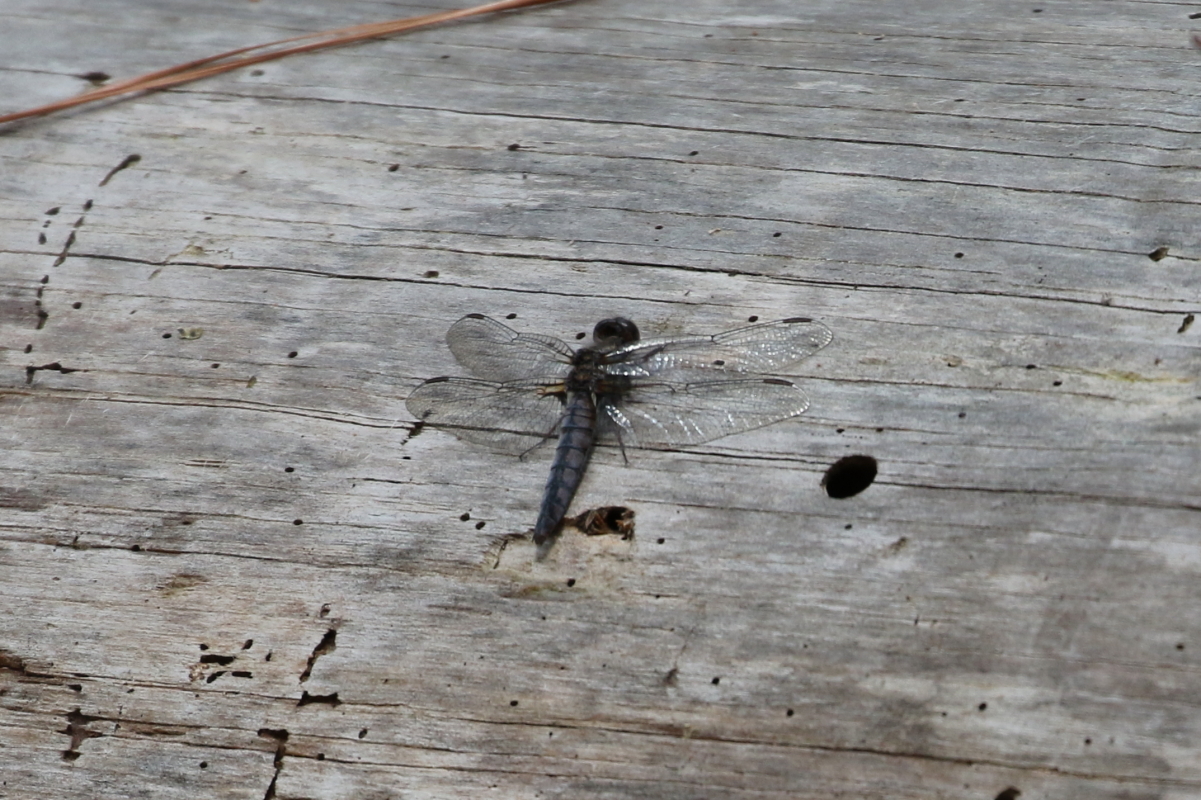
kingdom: Animalia
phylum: Arthropoda
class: Insecta
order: Odonata
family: Libellulidae
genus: Ladona
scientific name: Ladona deplanata
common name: Blue corporal
